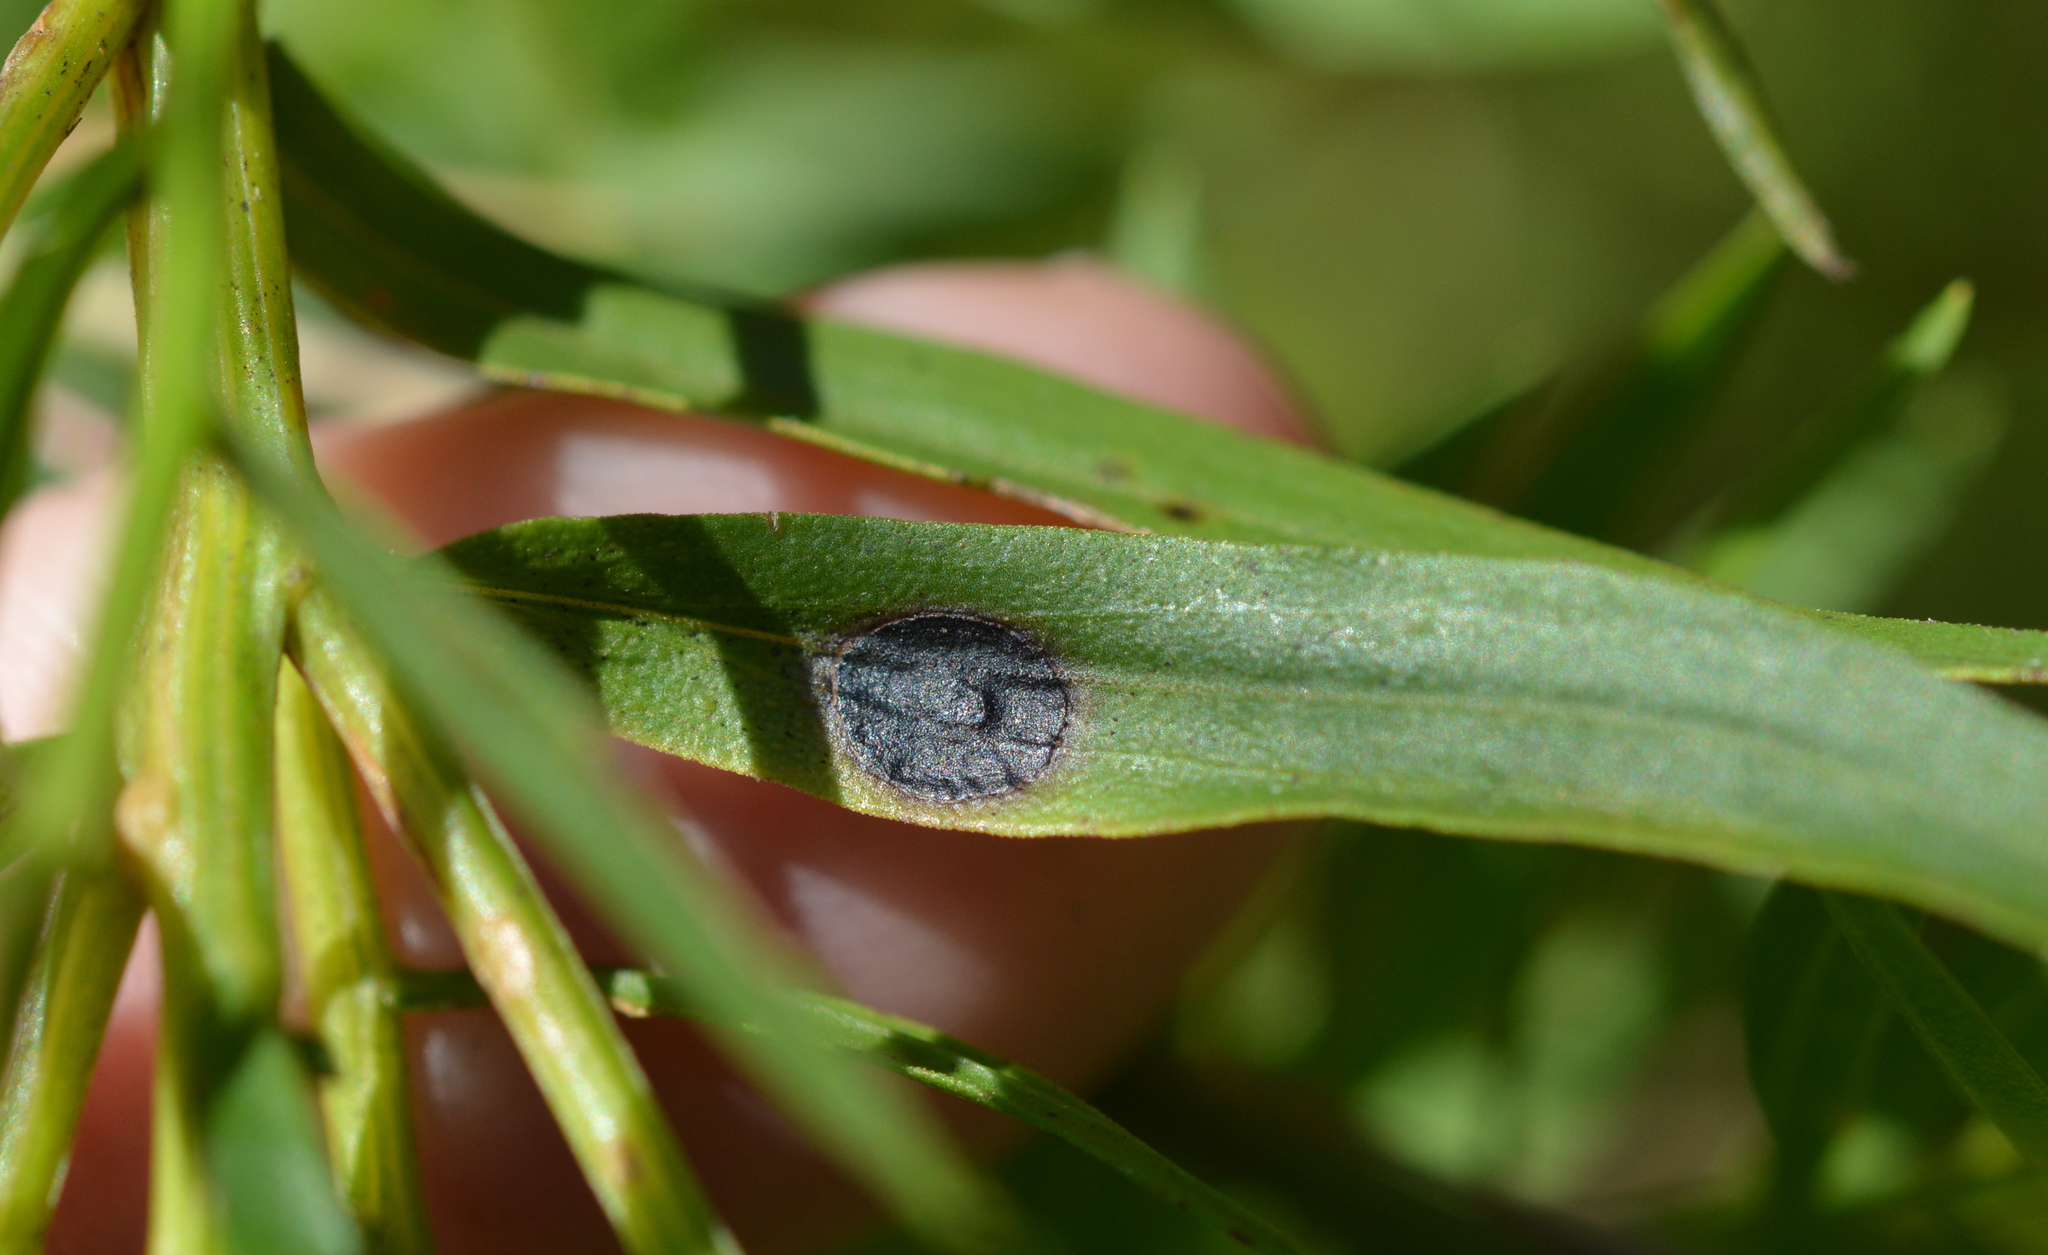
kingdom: Animalia
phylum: Arthropoda
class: Insecta
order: Diptera
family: Cecidomyiidae
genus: Asteromyia
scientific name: Asteromyia euthamiae
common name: Euthamia leaf gall midge
